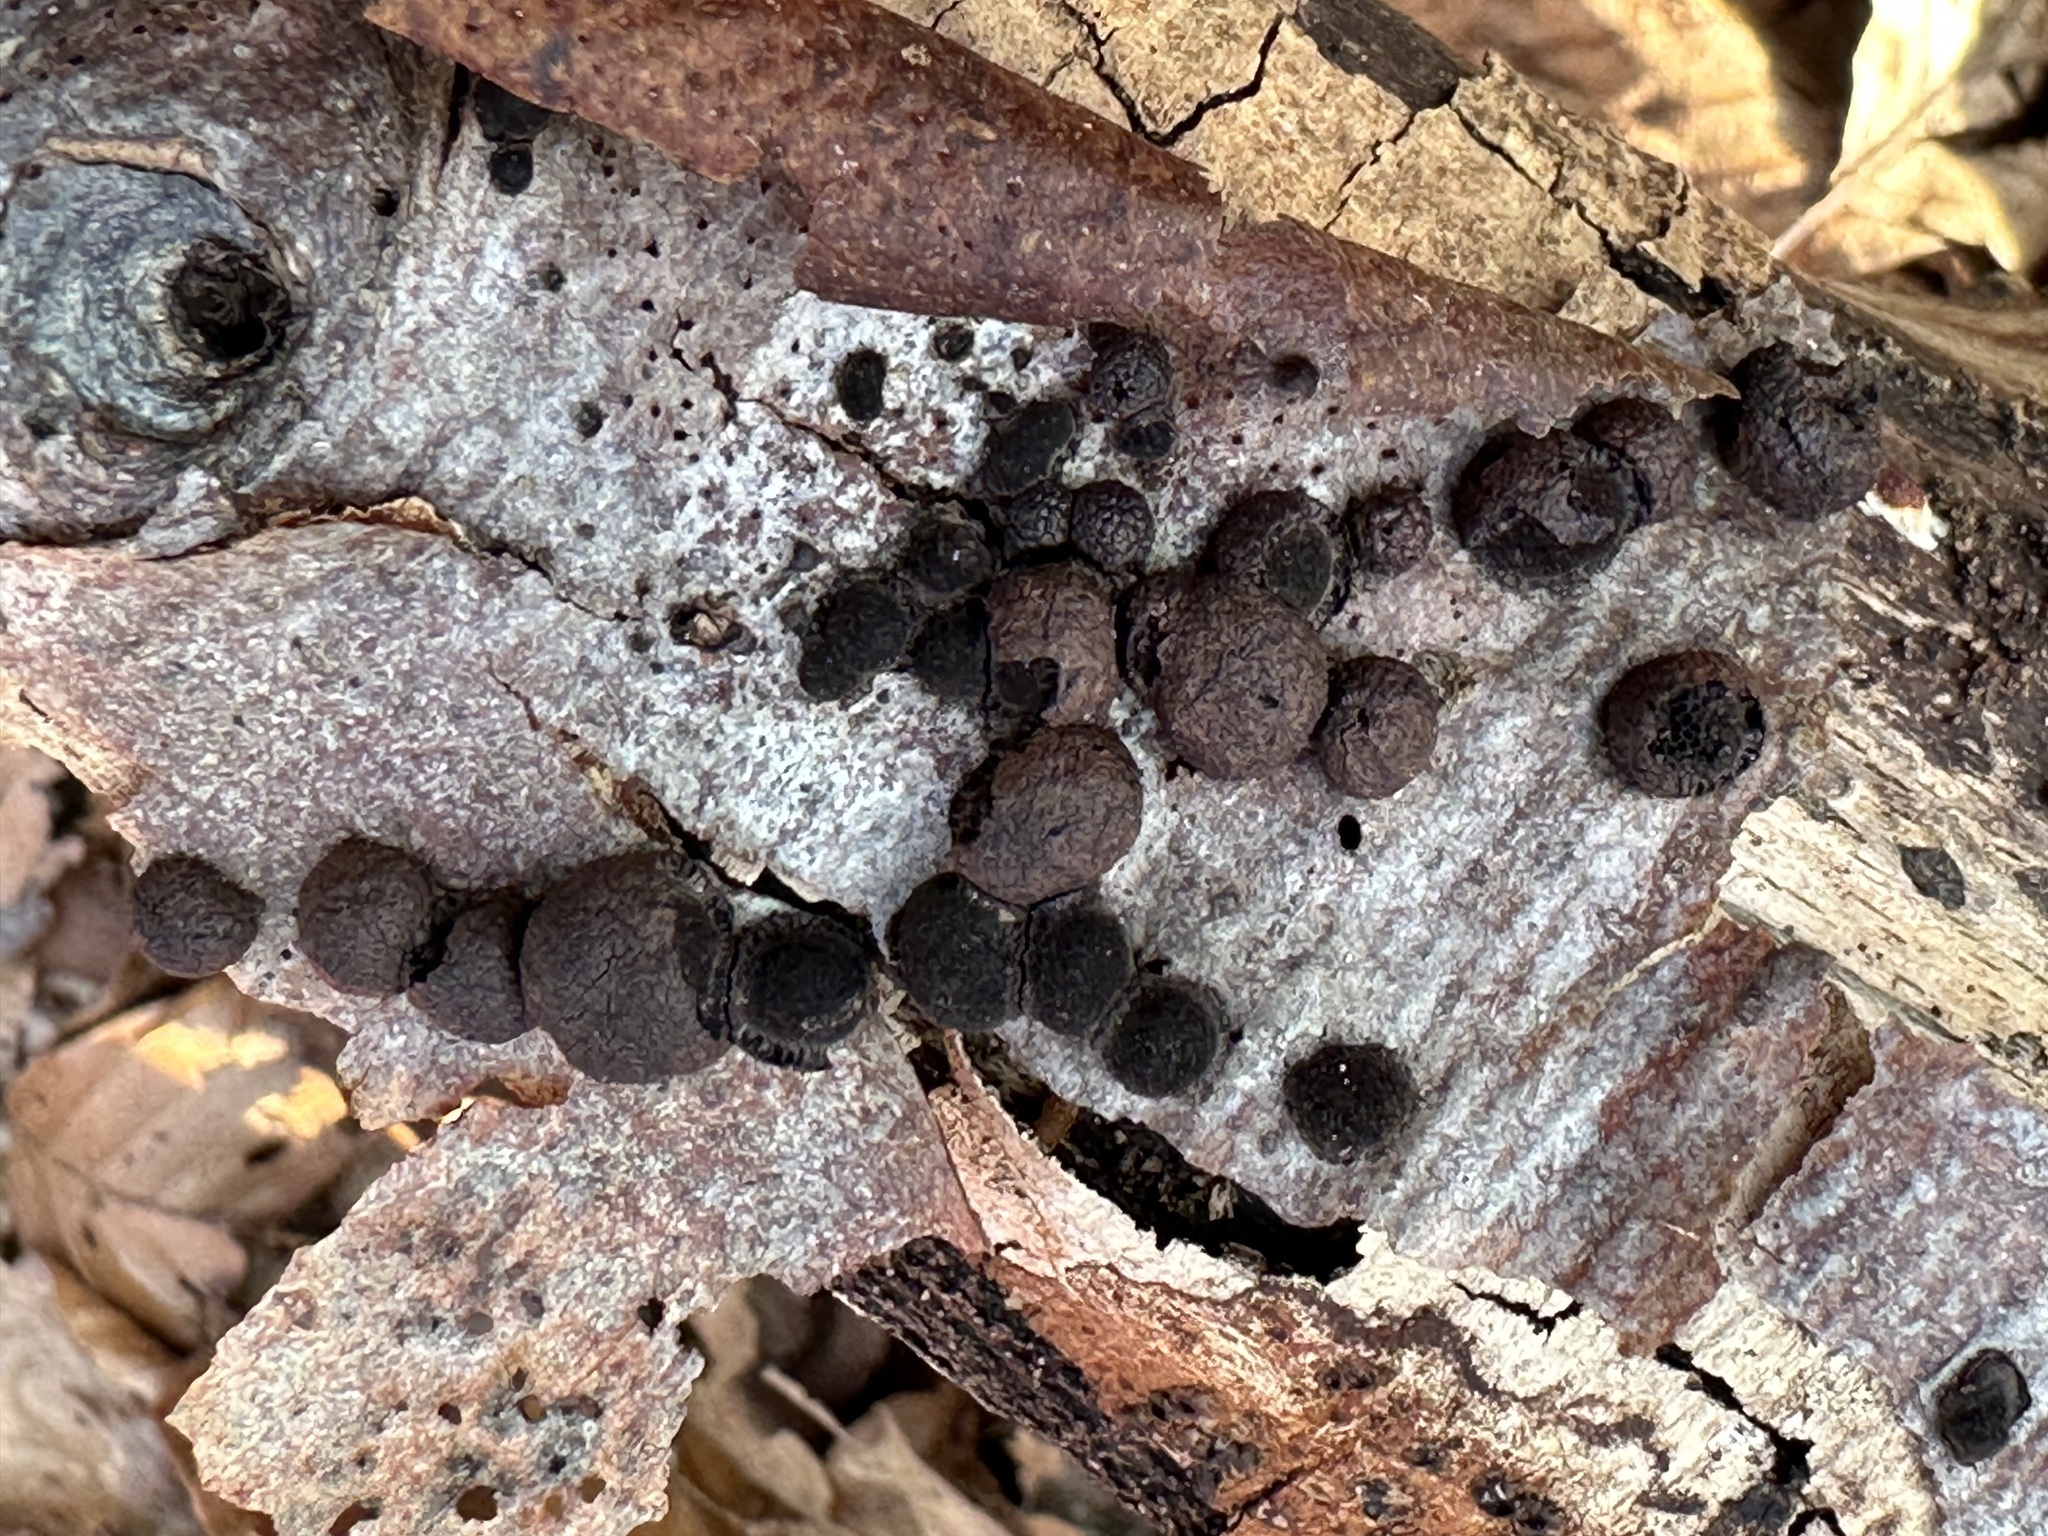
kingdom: Fungi
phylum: Ascomycota
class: Sordariomycetes
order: Xylariales
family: Hypoxylaceae
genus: Hypoxylon
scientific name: Hypoxylon fragiforme
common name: Beech woodwart
